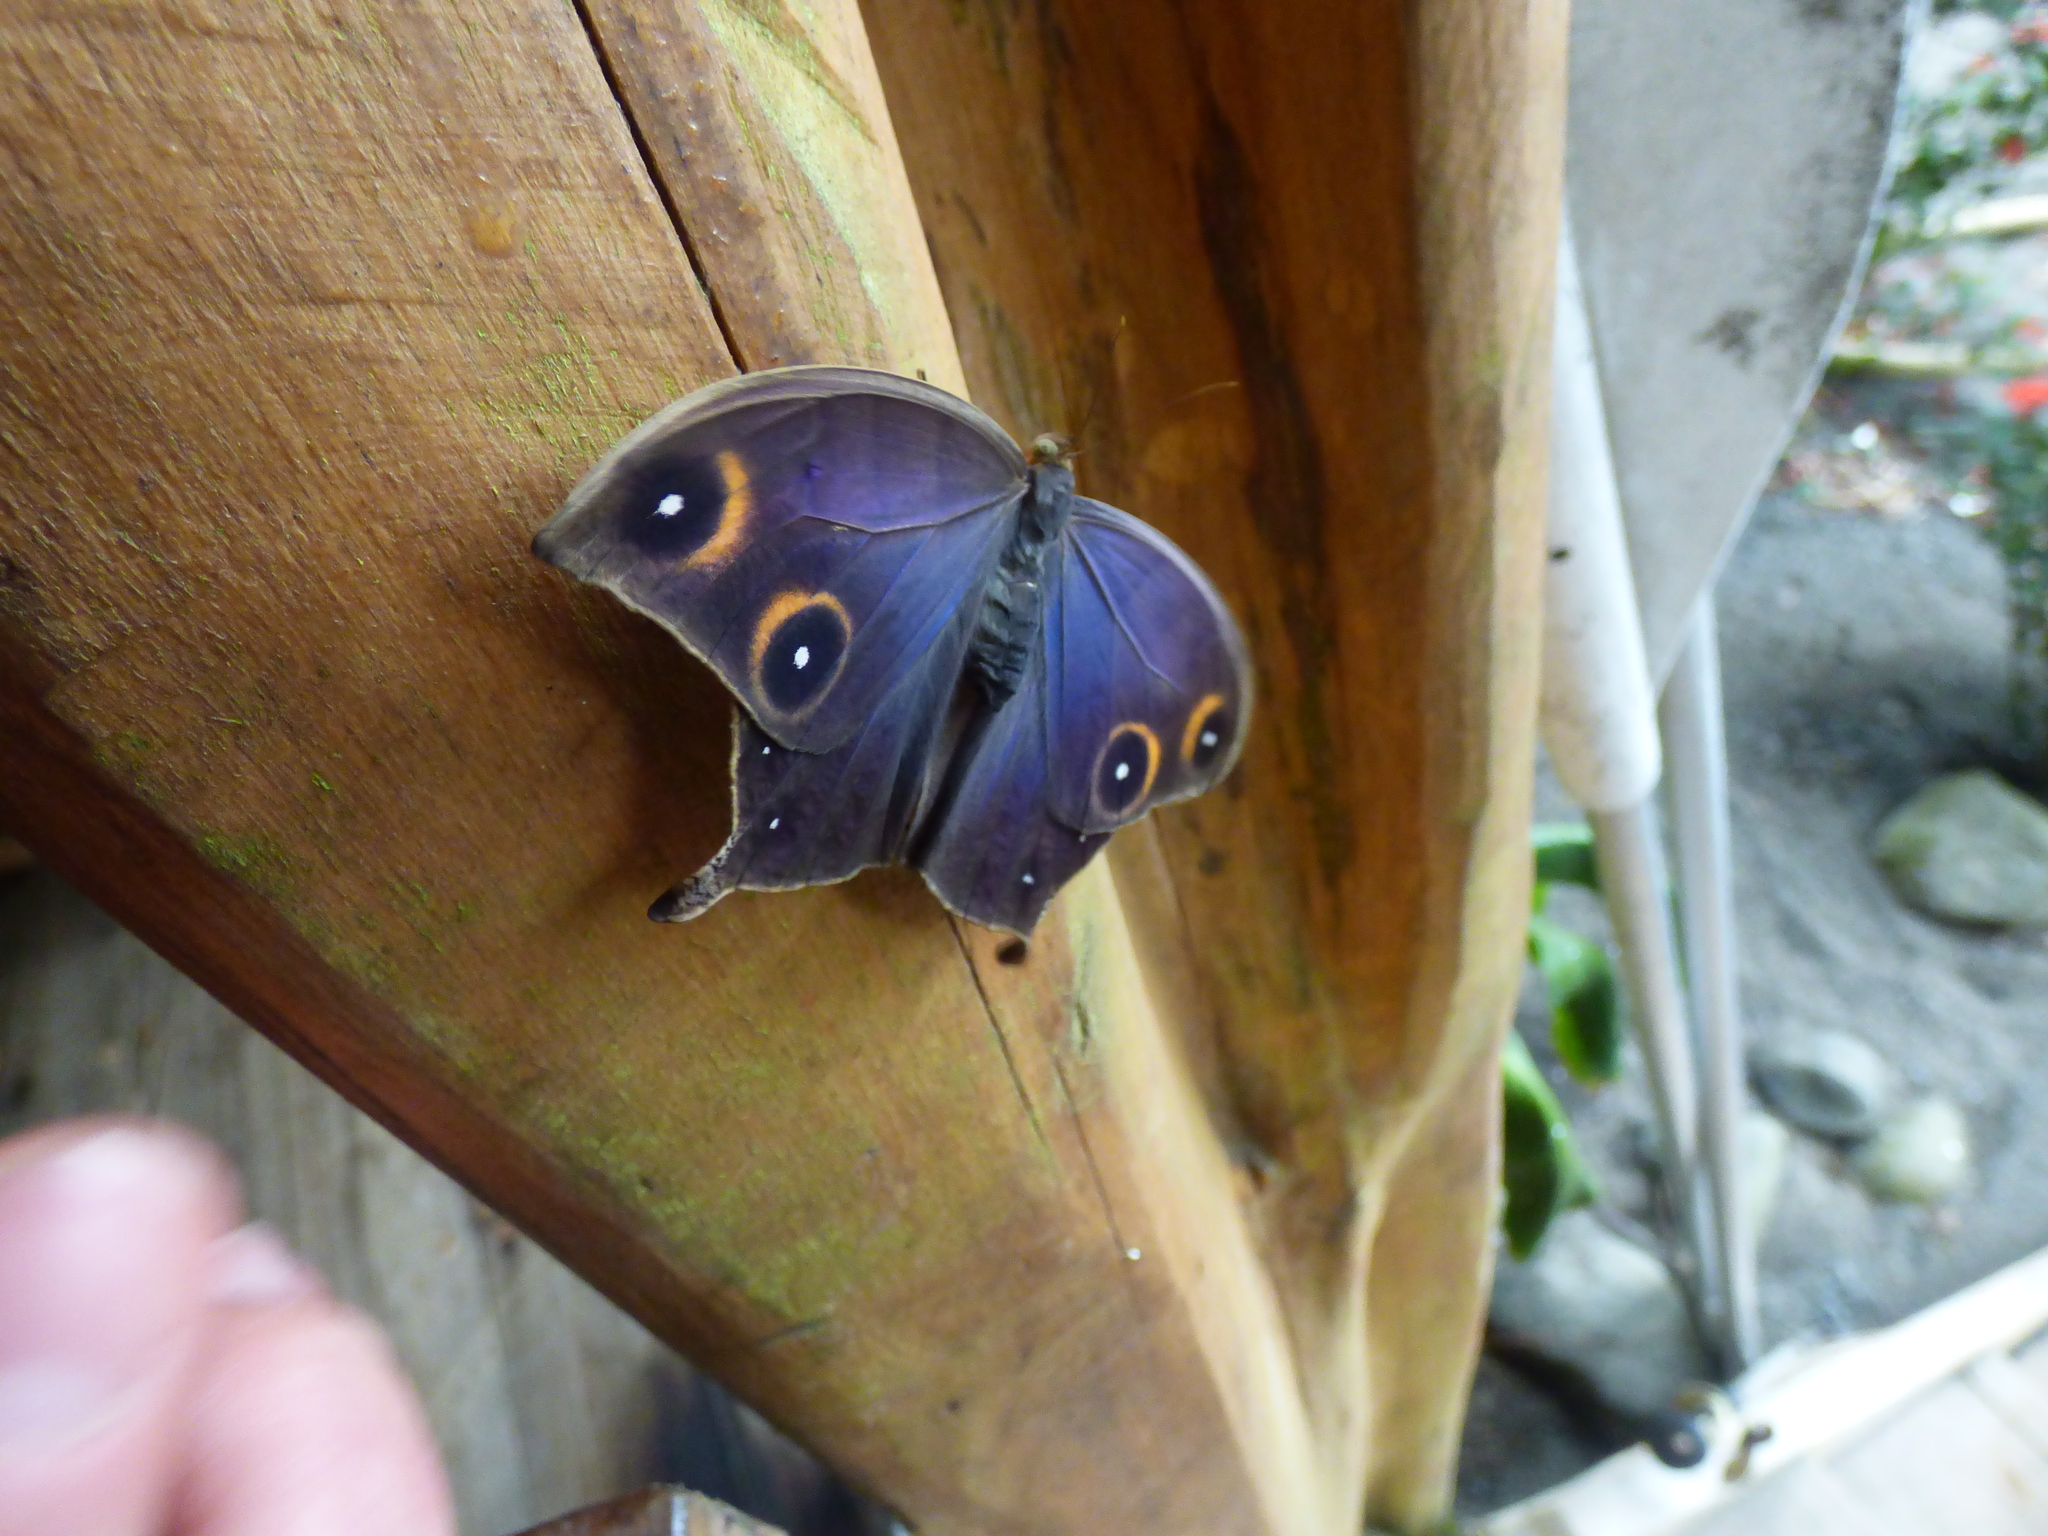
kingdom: Animalia
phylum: Arthropoda
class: Insecta
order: Lepidoptera
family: Nymphalidae
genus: Caerois
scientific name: Caerois gerdrudtus
